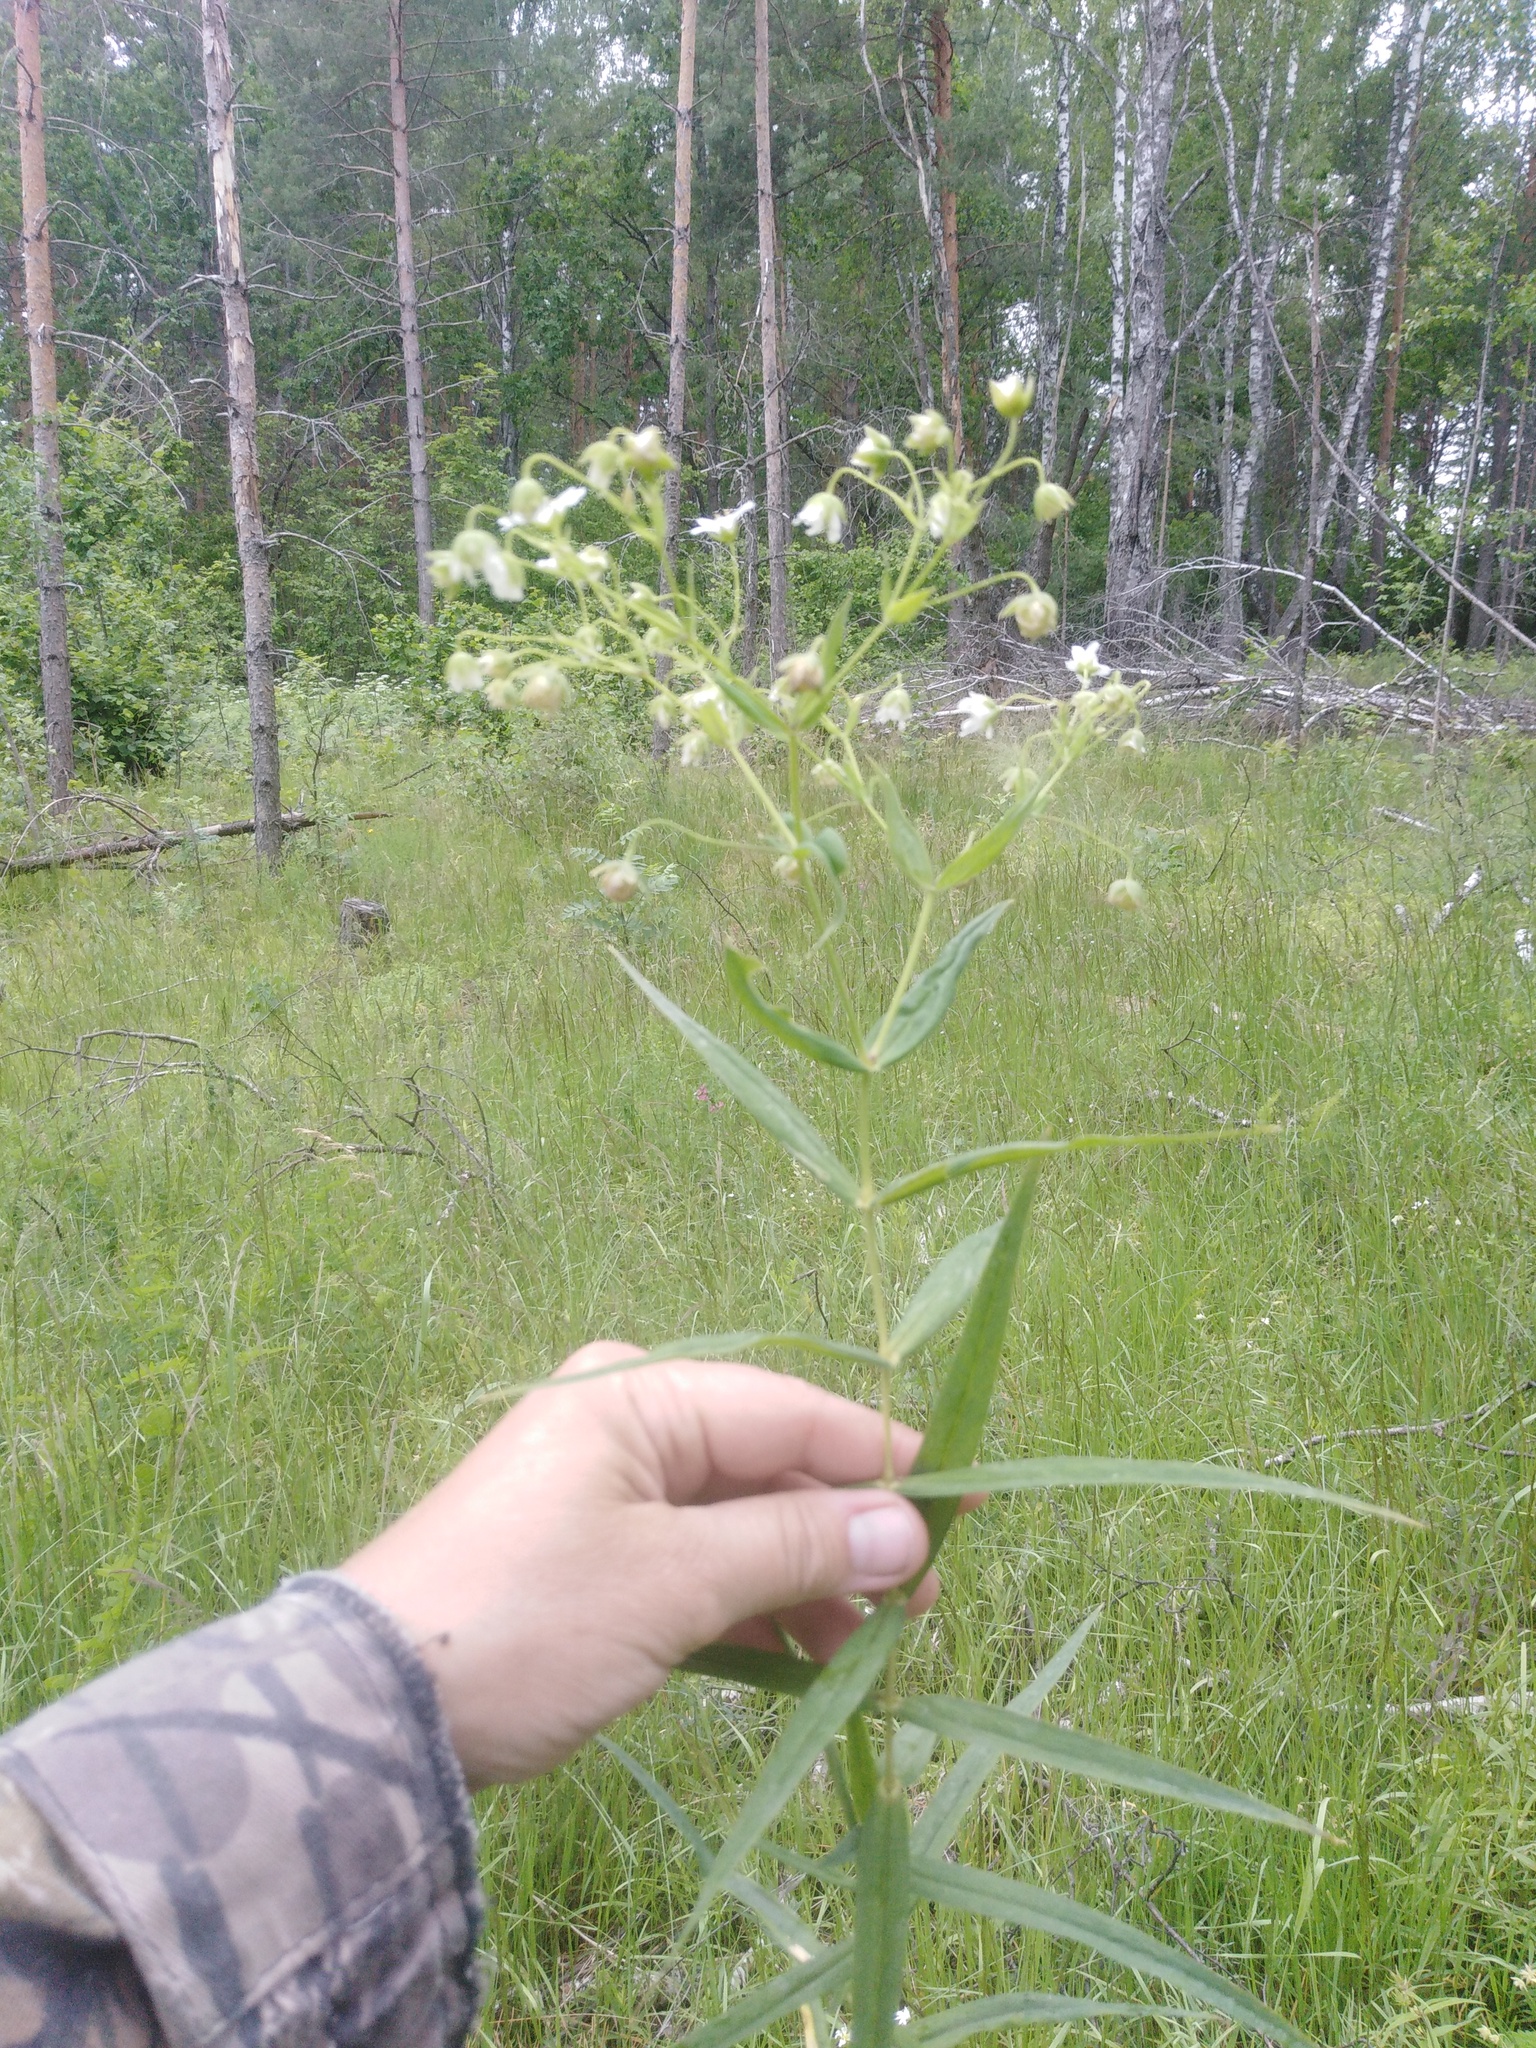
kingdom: Plantae
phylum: Tracheophyta
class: Magnoliopsida
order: Caryophyllales
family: Caryophyllaceae
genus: Rabelera
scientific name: Rabelera holostea
